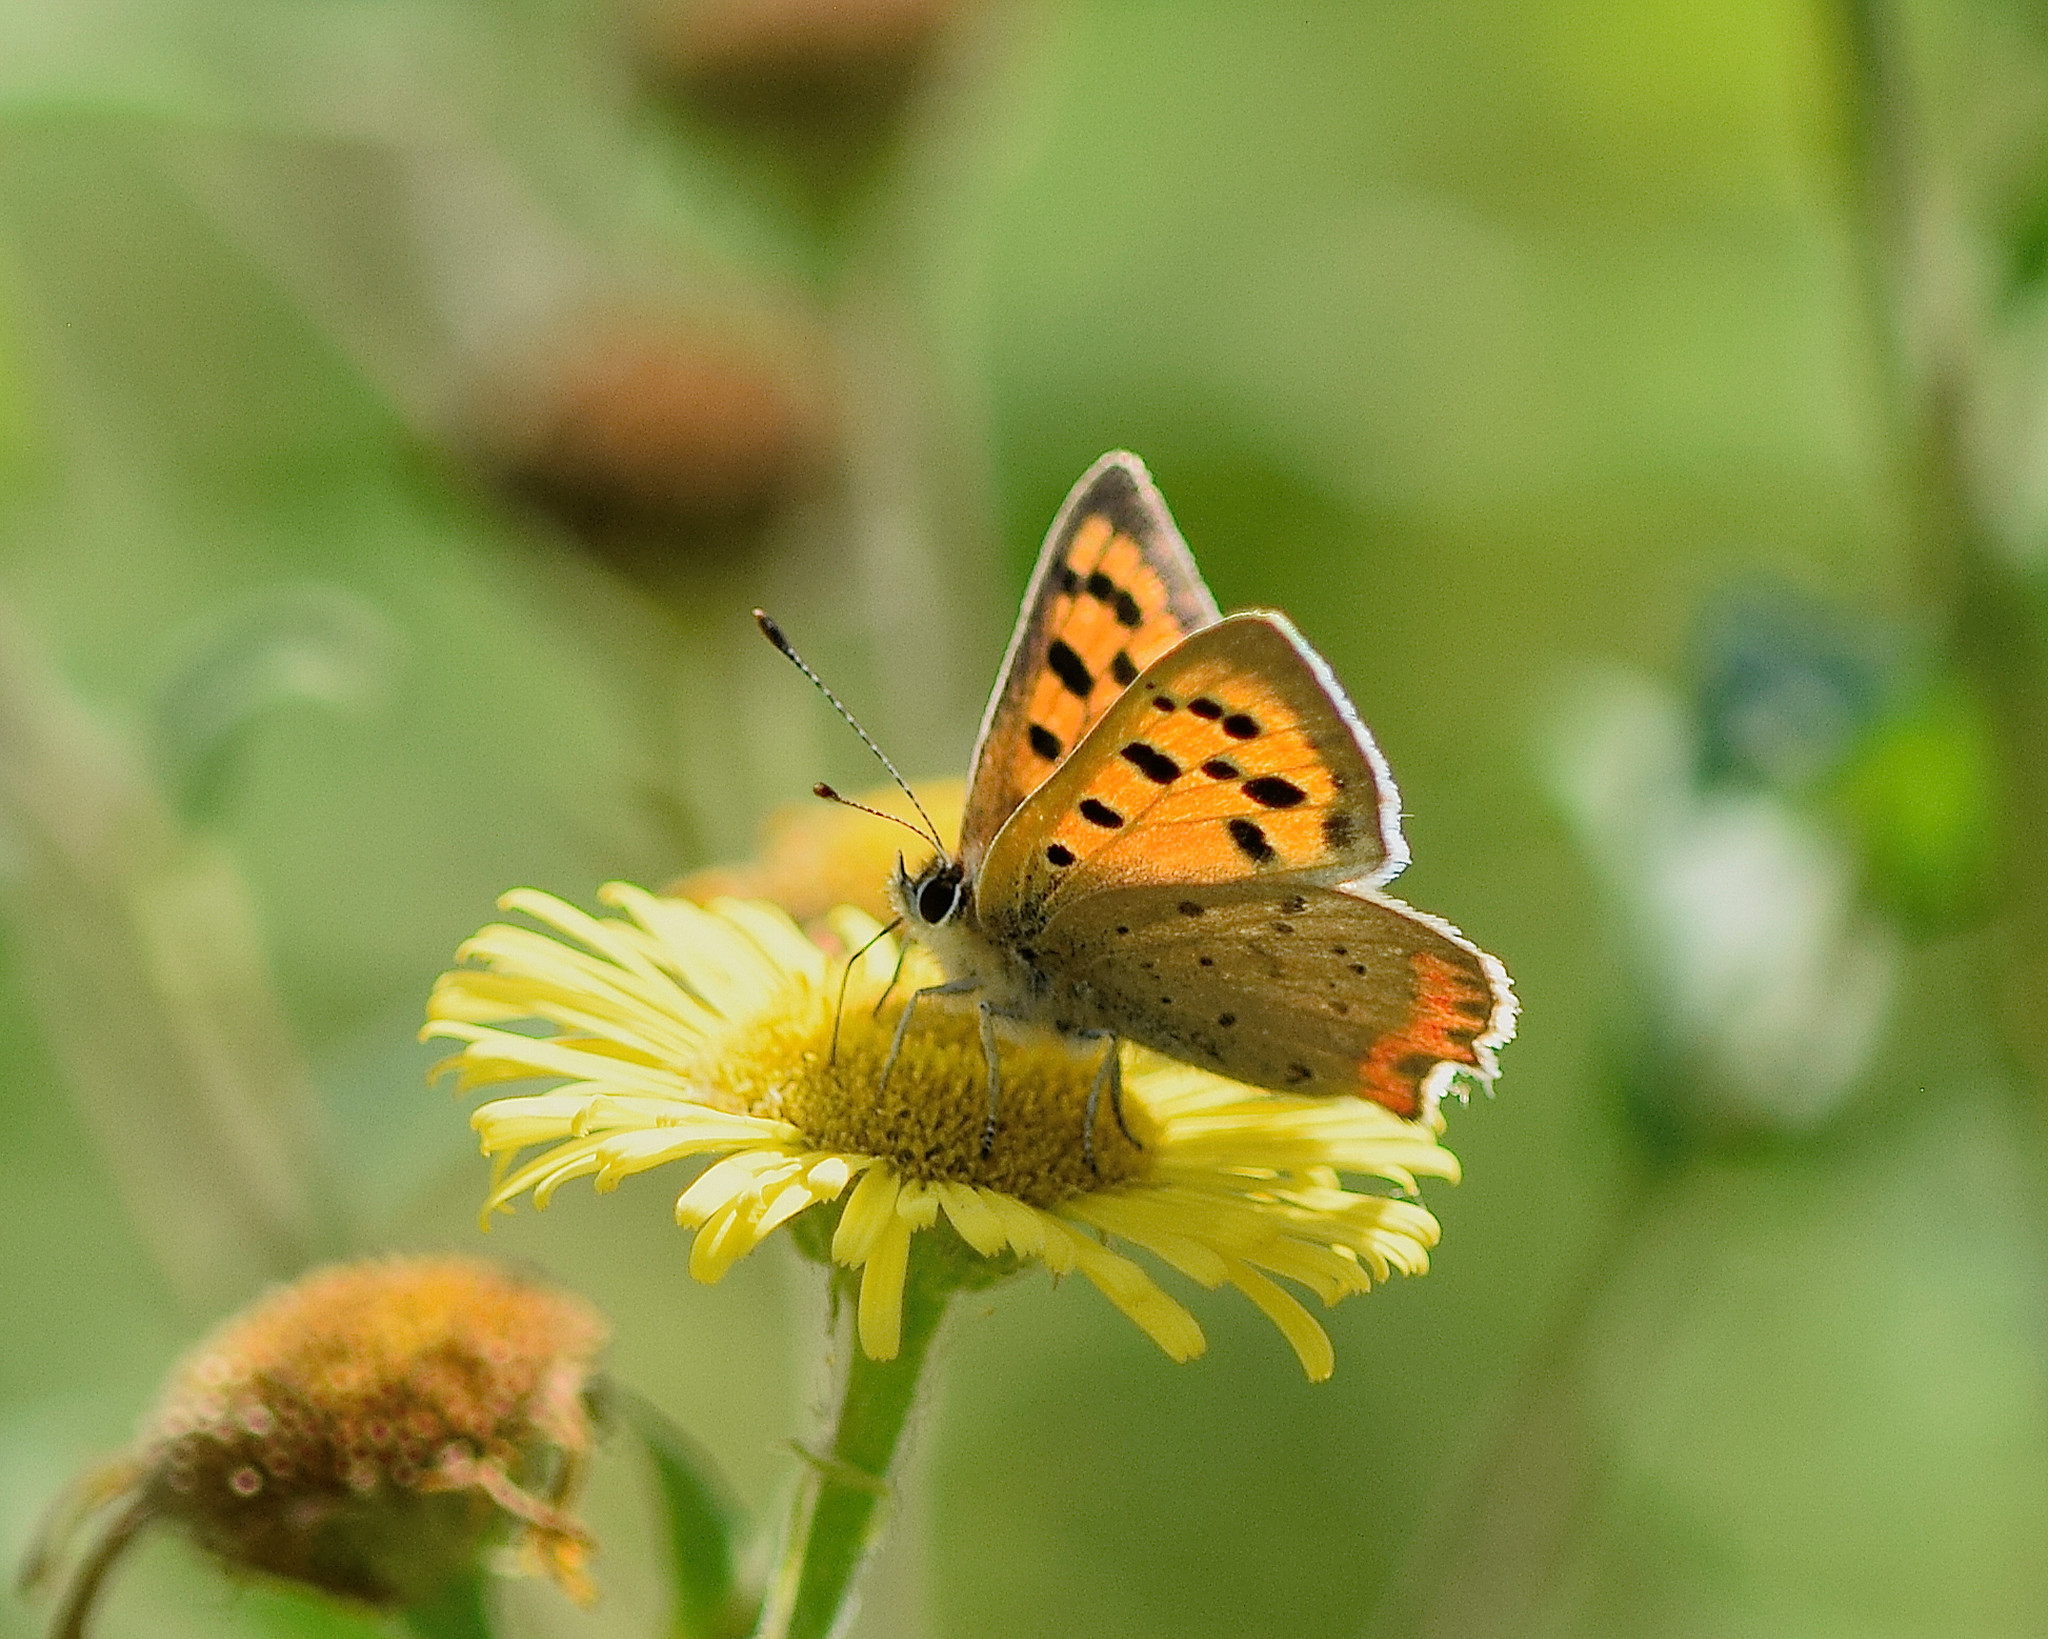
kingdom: Animalia
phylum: Arthropoda
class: Insecta
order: Lepidoptera
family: Lycaenidae
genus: Lycaena
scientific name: Lycaena phlaeas
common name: Small copper
